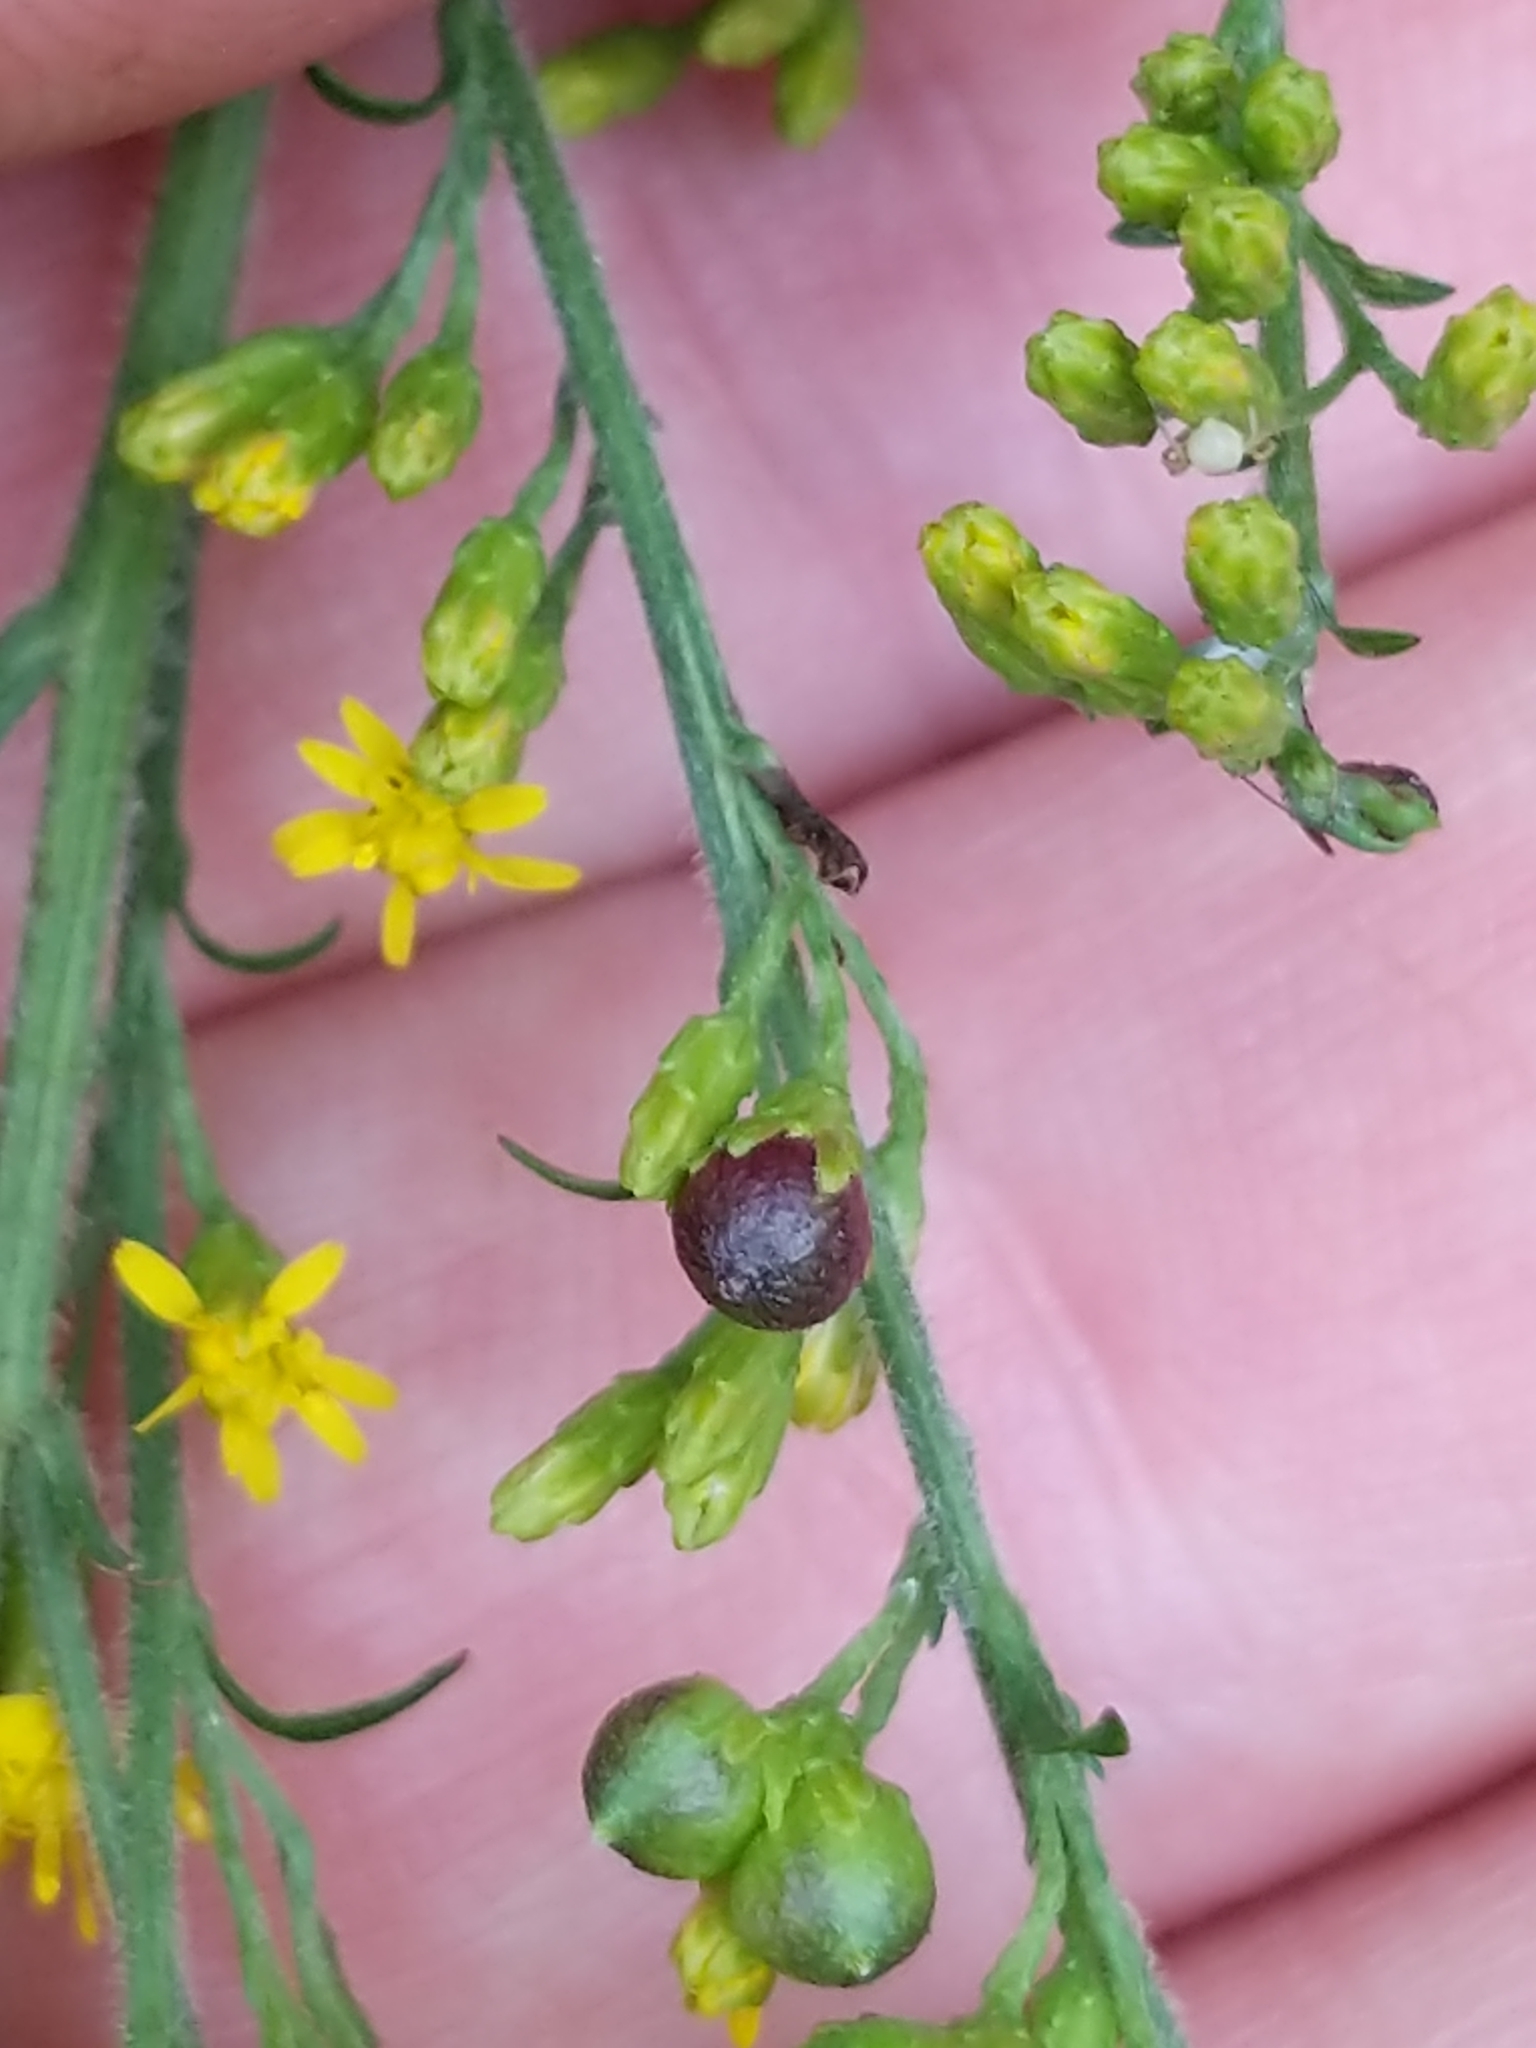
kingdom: Animalia
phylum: Arthropoda
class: Insecta
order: Diptera
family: Cecidomyiidae
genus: Schizomyia
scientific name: Schizomyia racemicola
